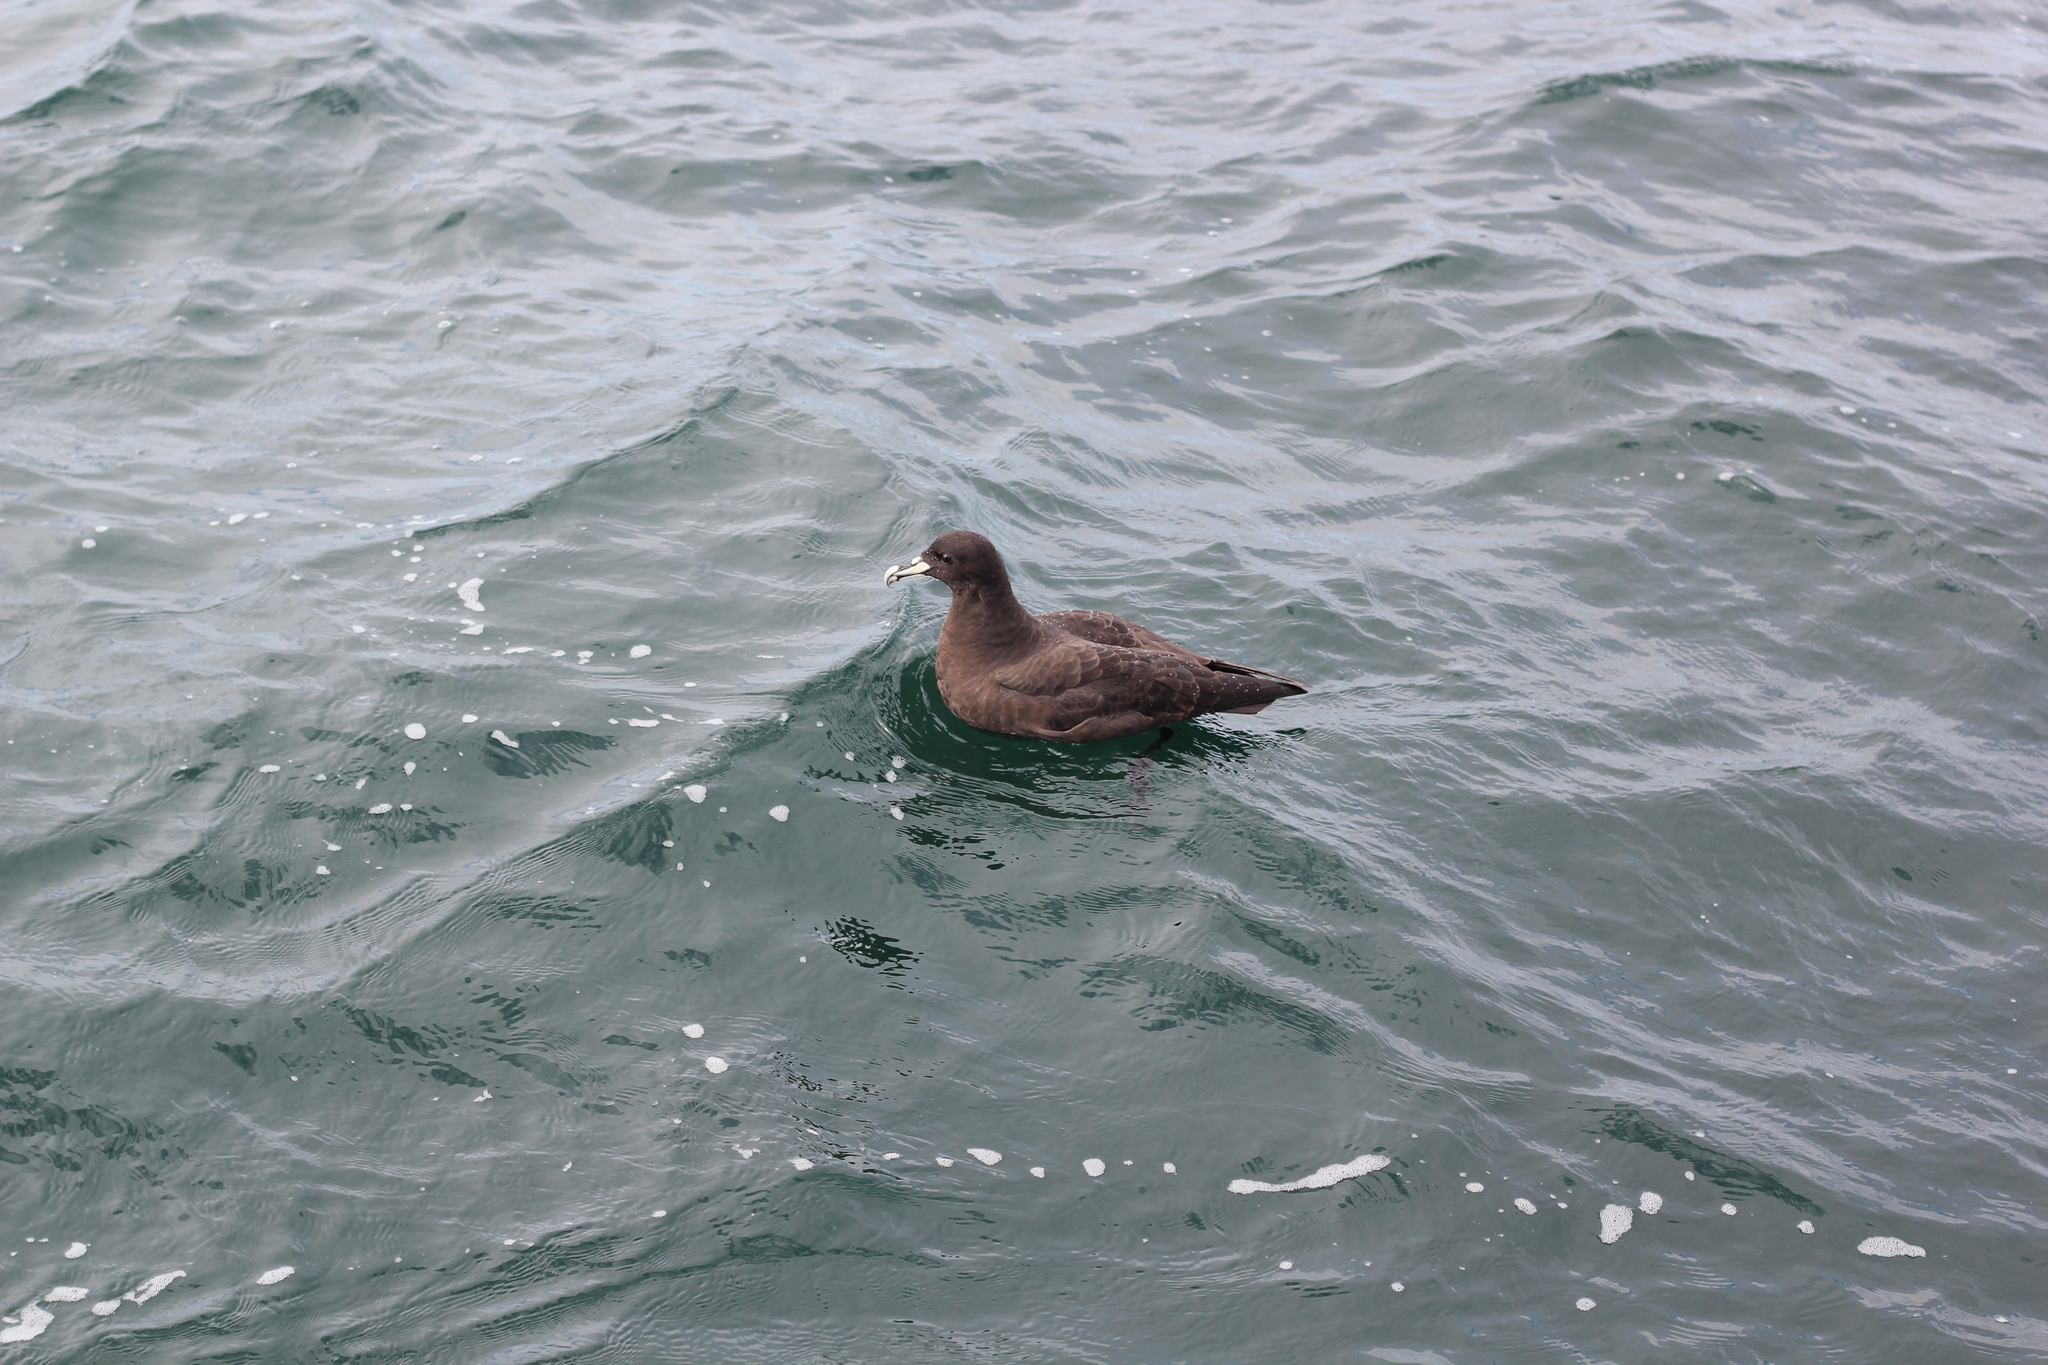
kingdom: Animalia
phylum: Chordata
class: Aves
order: Procellariiformes
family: Procellariidae
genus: Procellaria
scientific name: Procellaria aequinoctialis
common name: White-chinned petrel
